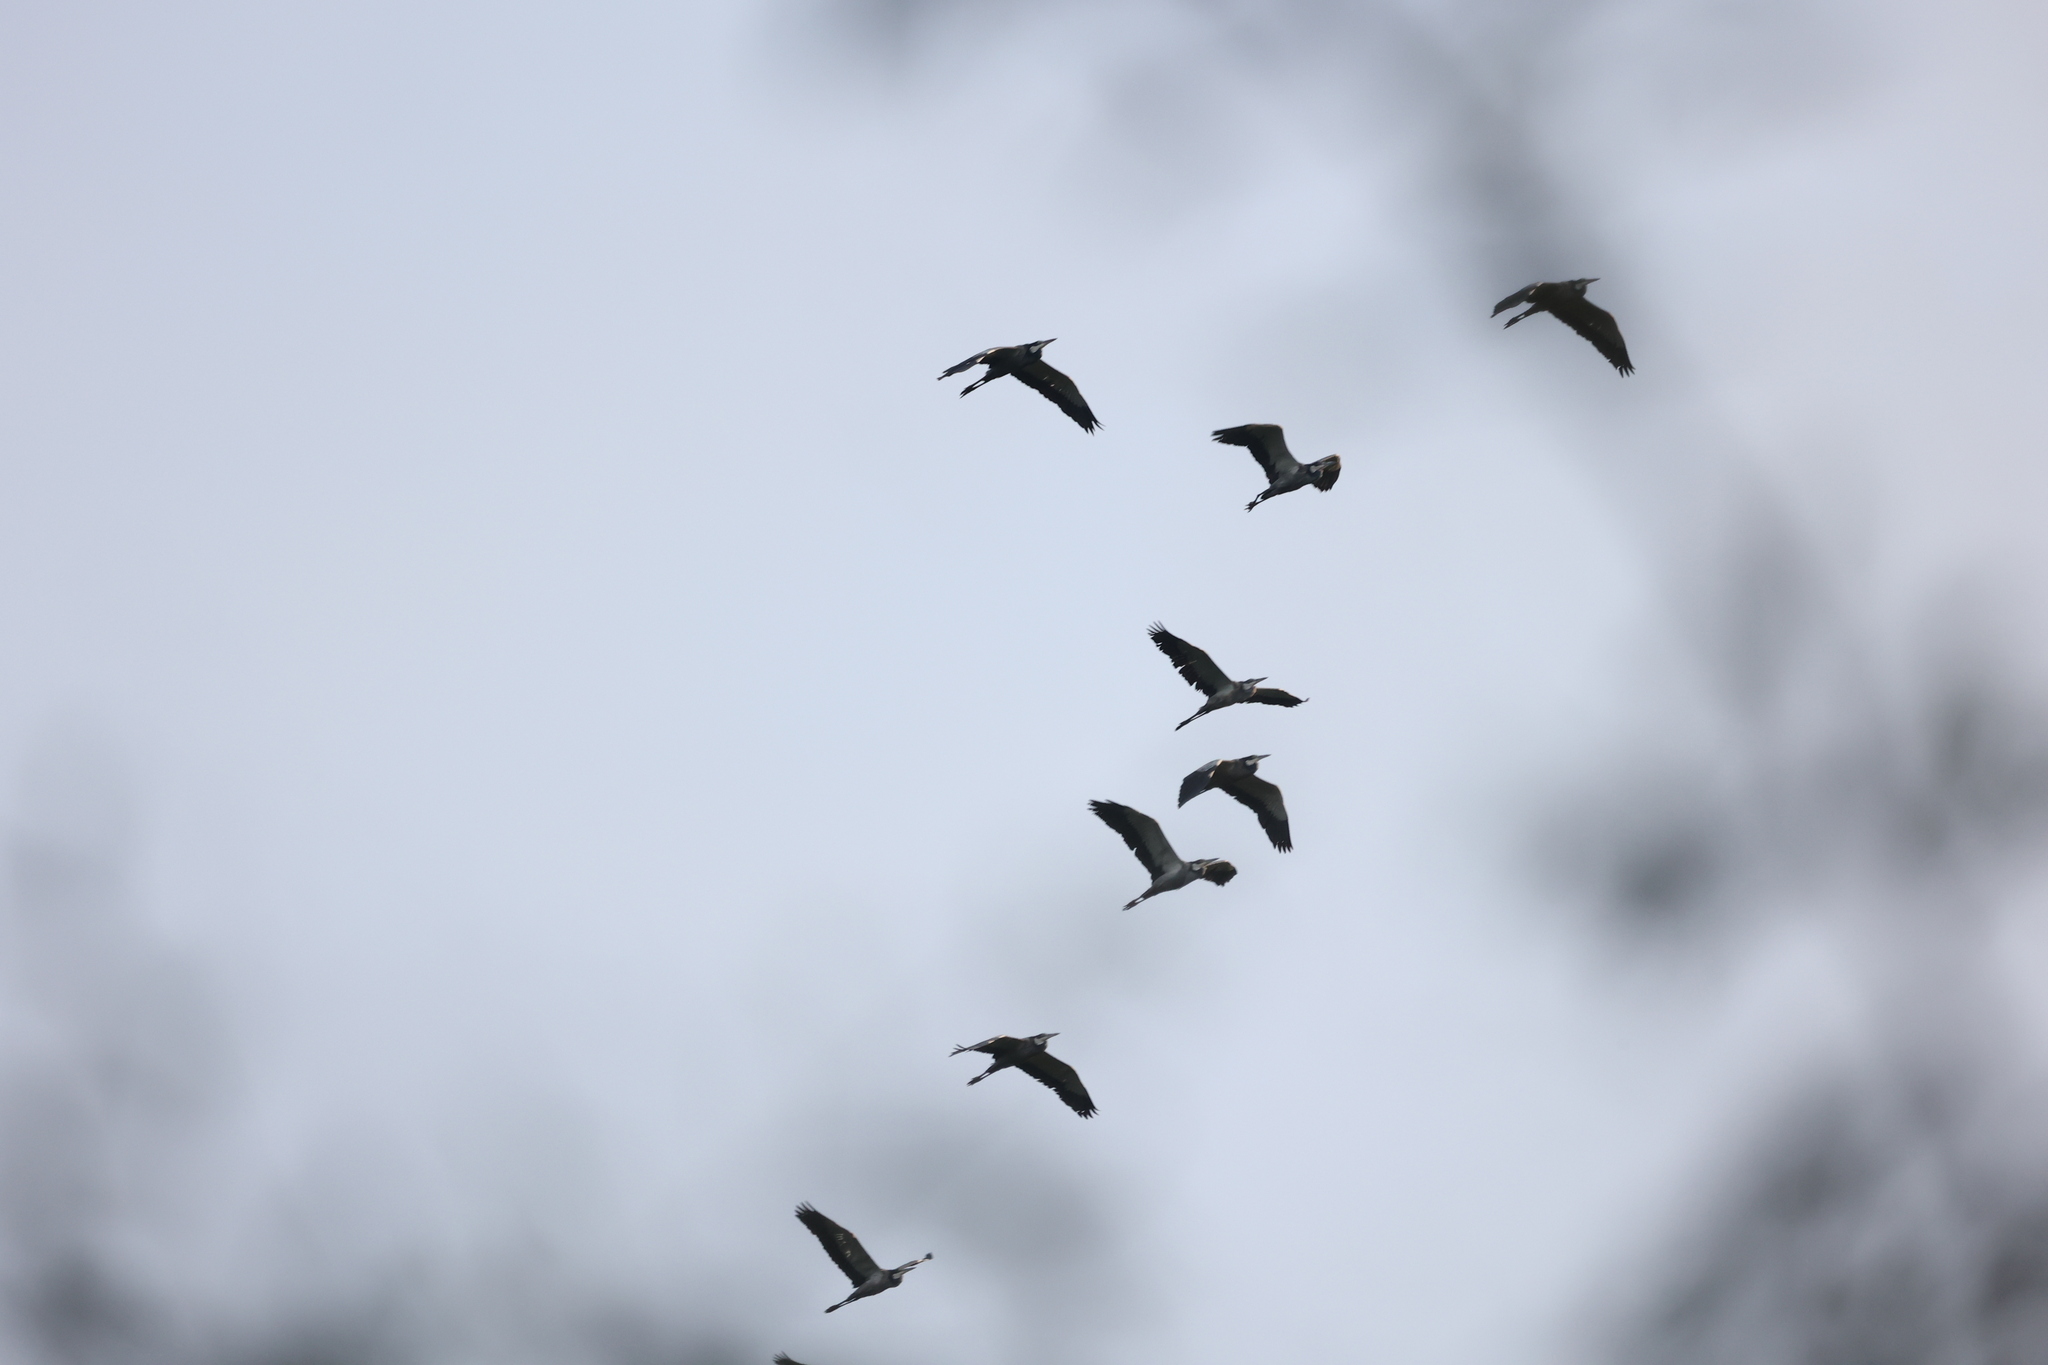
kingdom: Animalia
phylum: Chordata
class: Aves
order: Pelecaniformes
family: Ardeidae
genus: Ardea
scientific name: Ardea melanocephala
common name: Black-headed heron
